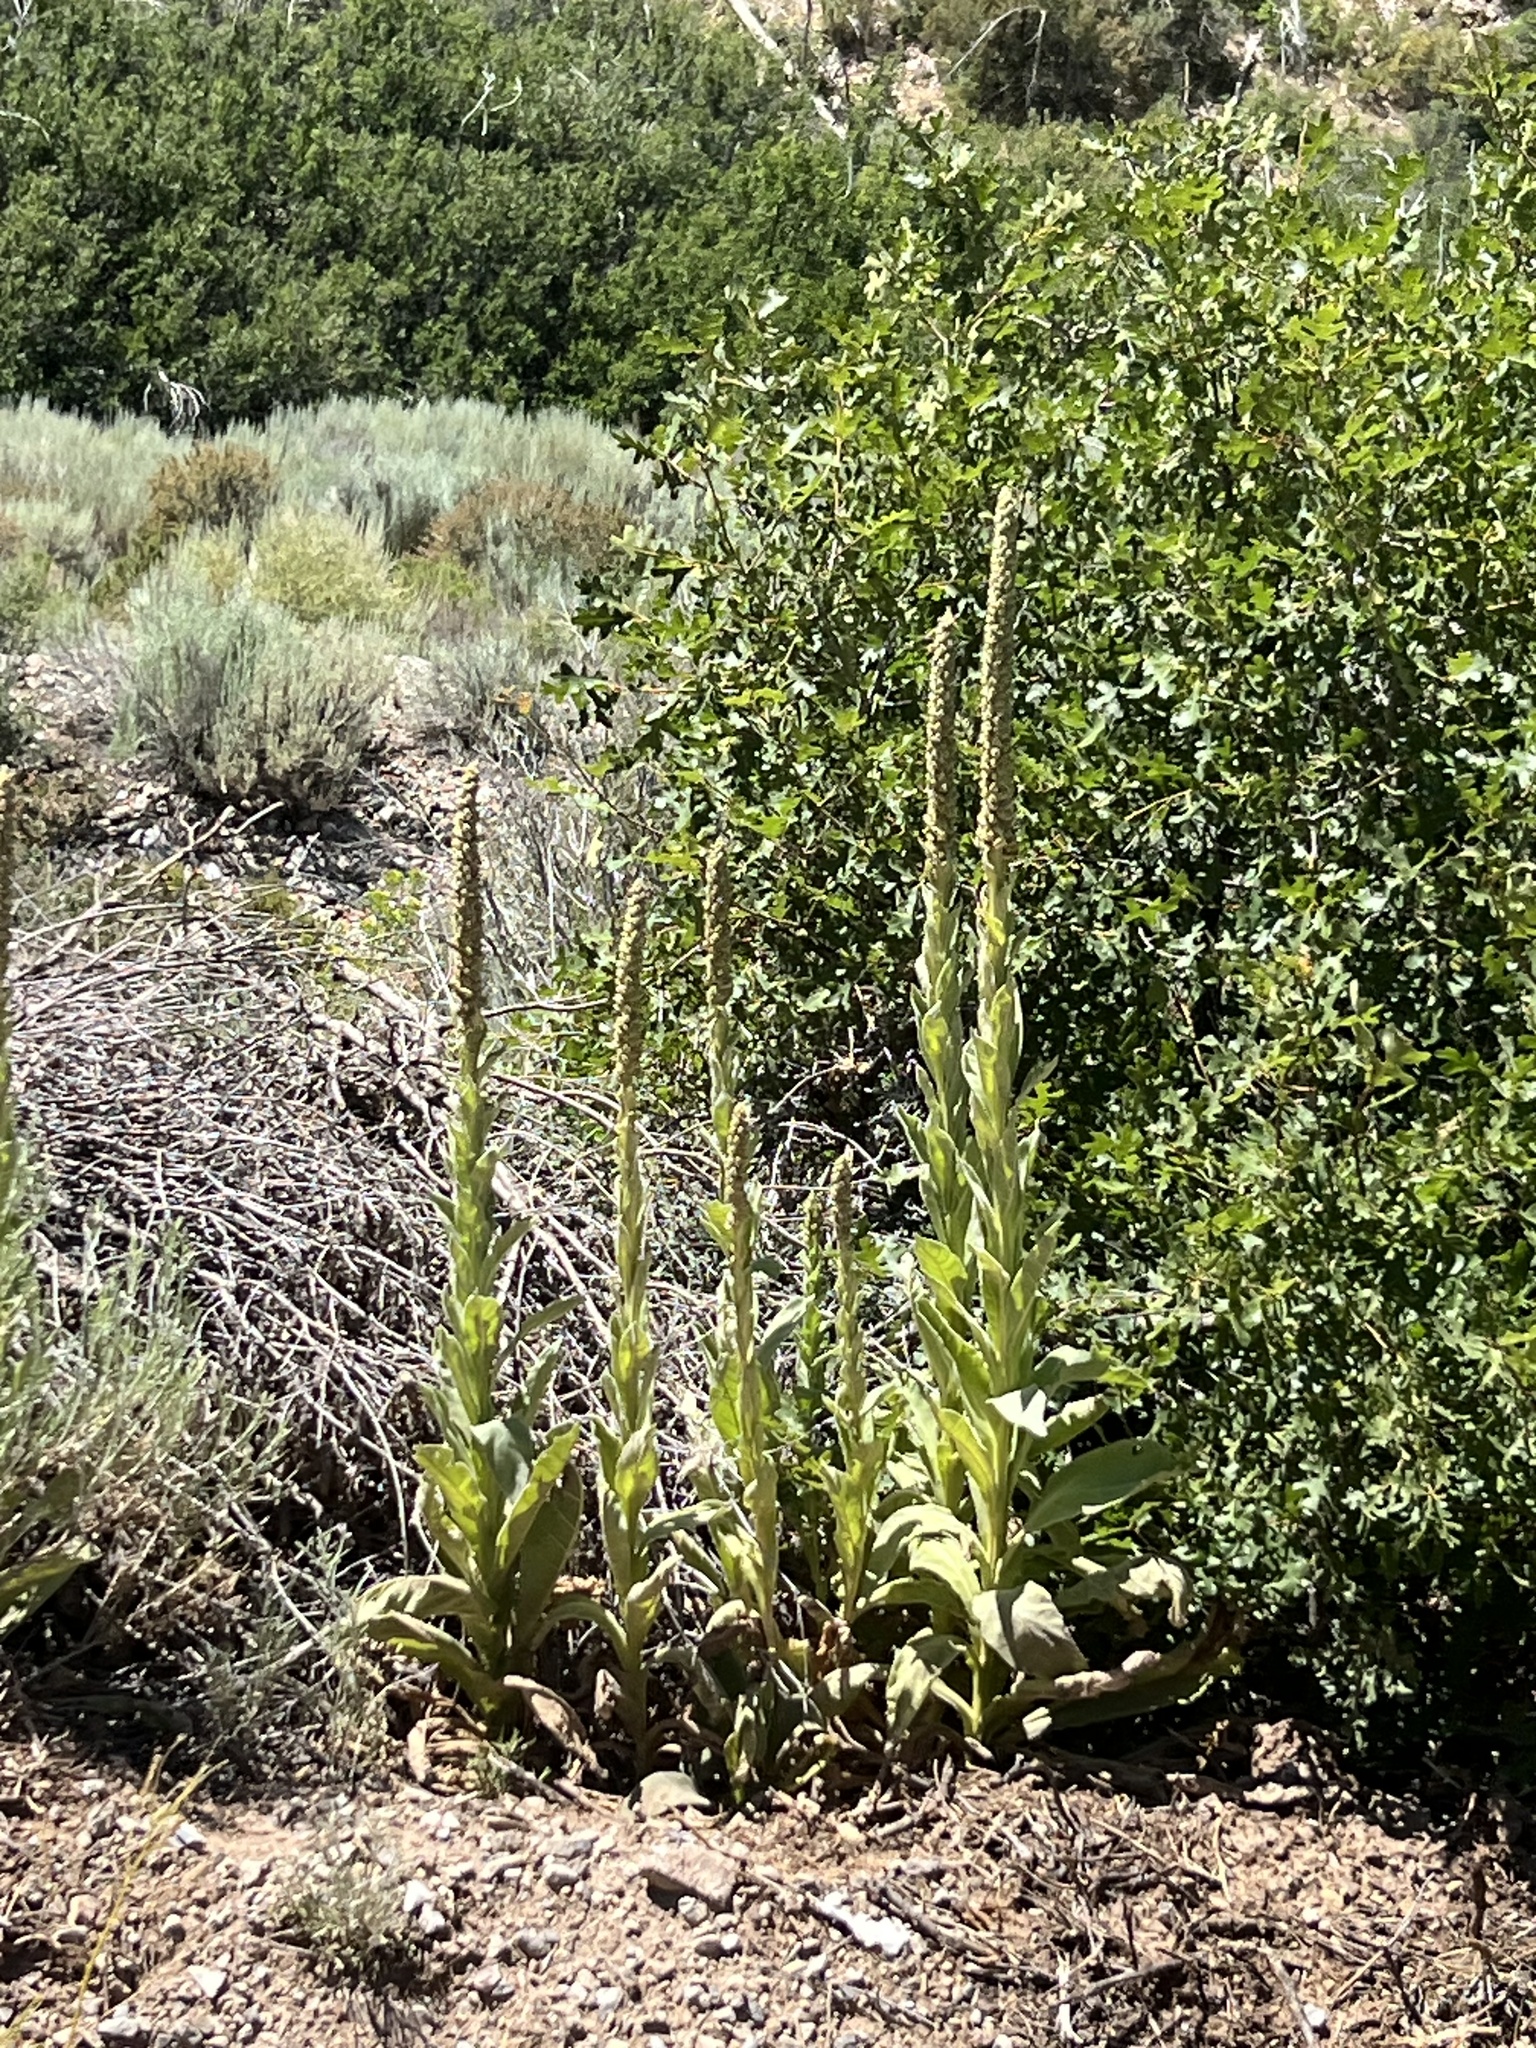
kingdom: Plantae
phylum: Tracheophyta
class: Magnoliopsida
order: Lamiales
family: Scrophulariaceae
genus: Verbascum
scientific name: Verbascum thapsus
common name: Common mullein
